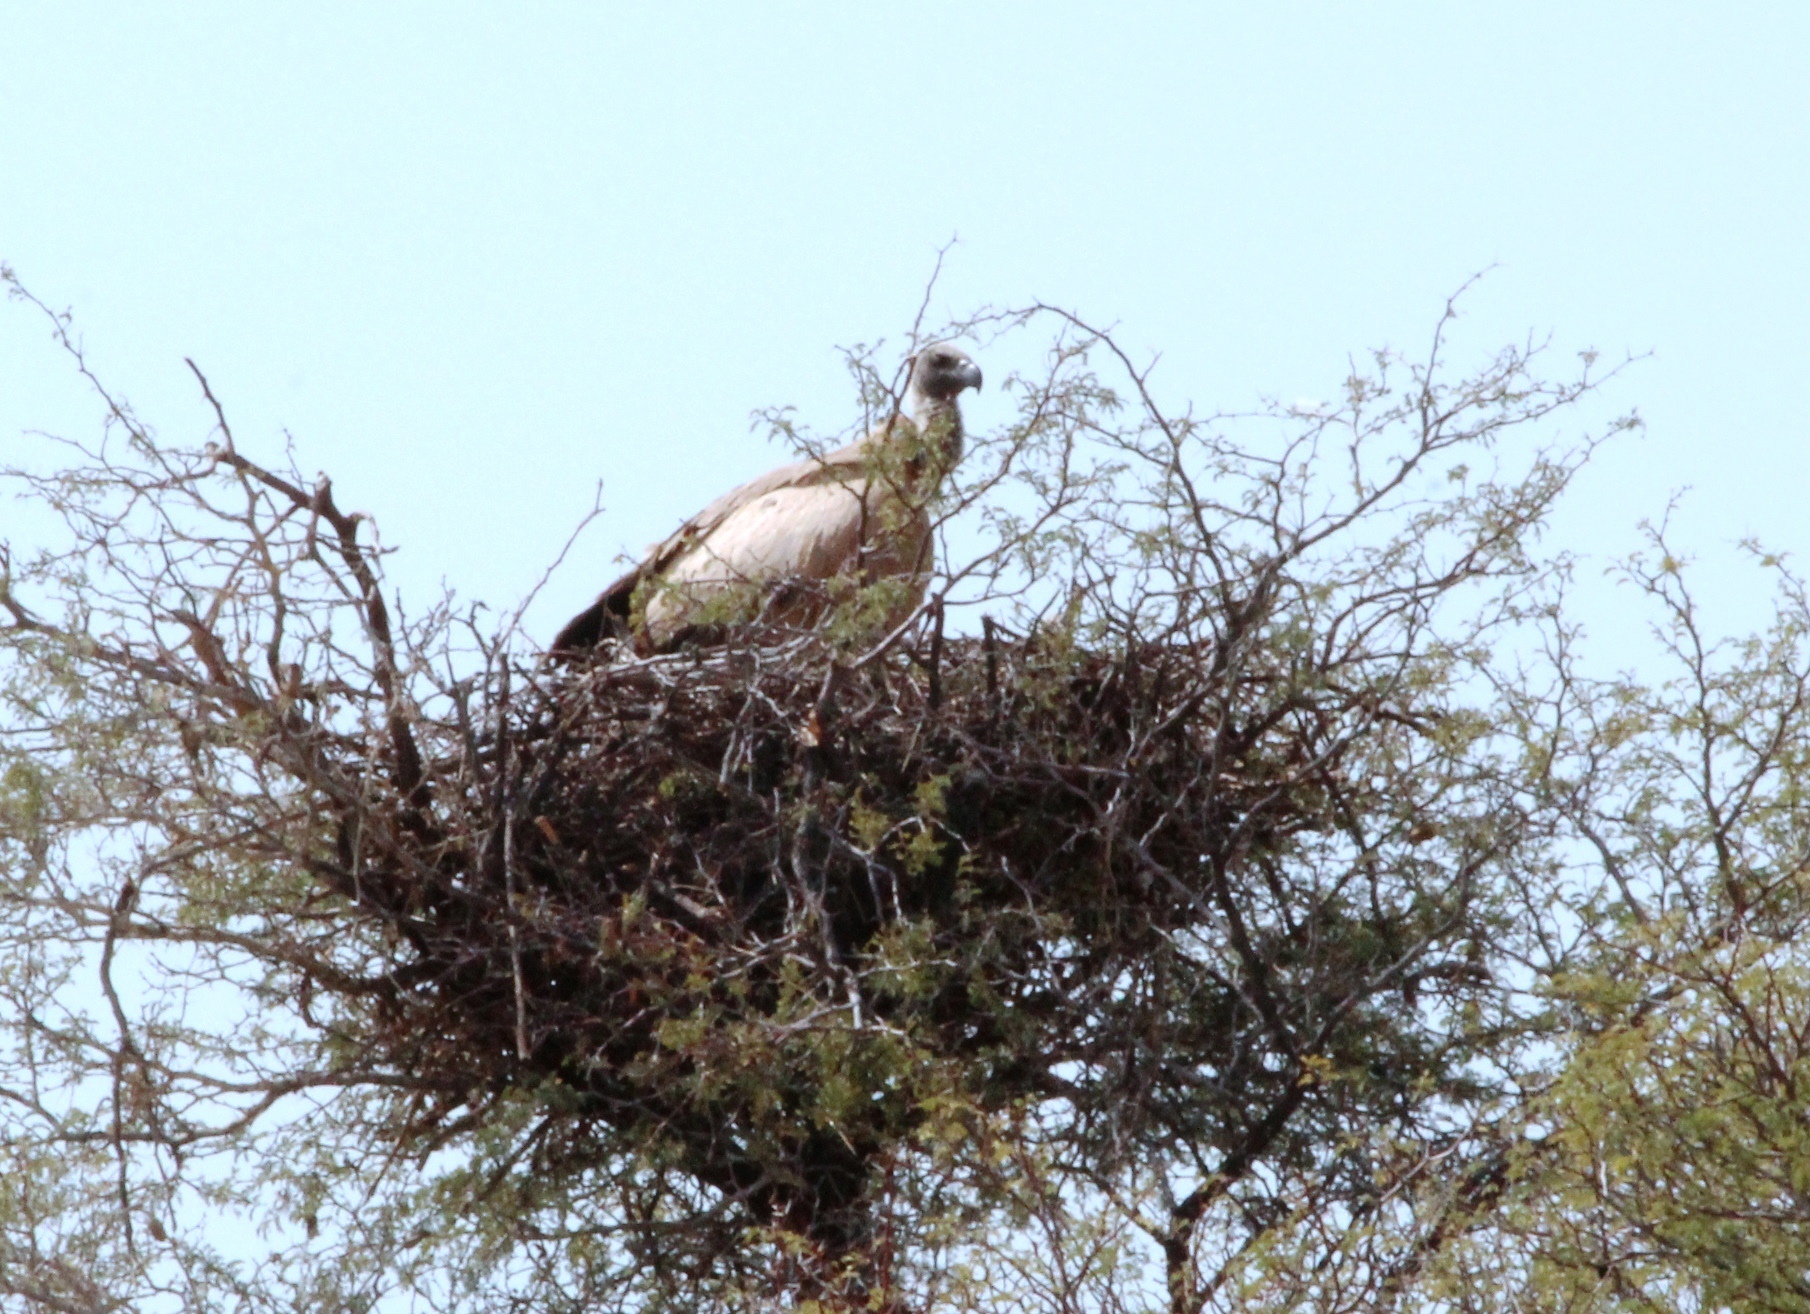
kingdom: Animalia
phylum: Chordata
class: Aves
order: Accipitriformes
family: Accipitridae
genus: Gyps
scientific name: Gyps africanus
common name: White-backed vulture
